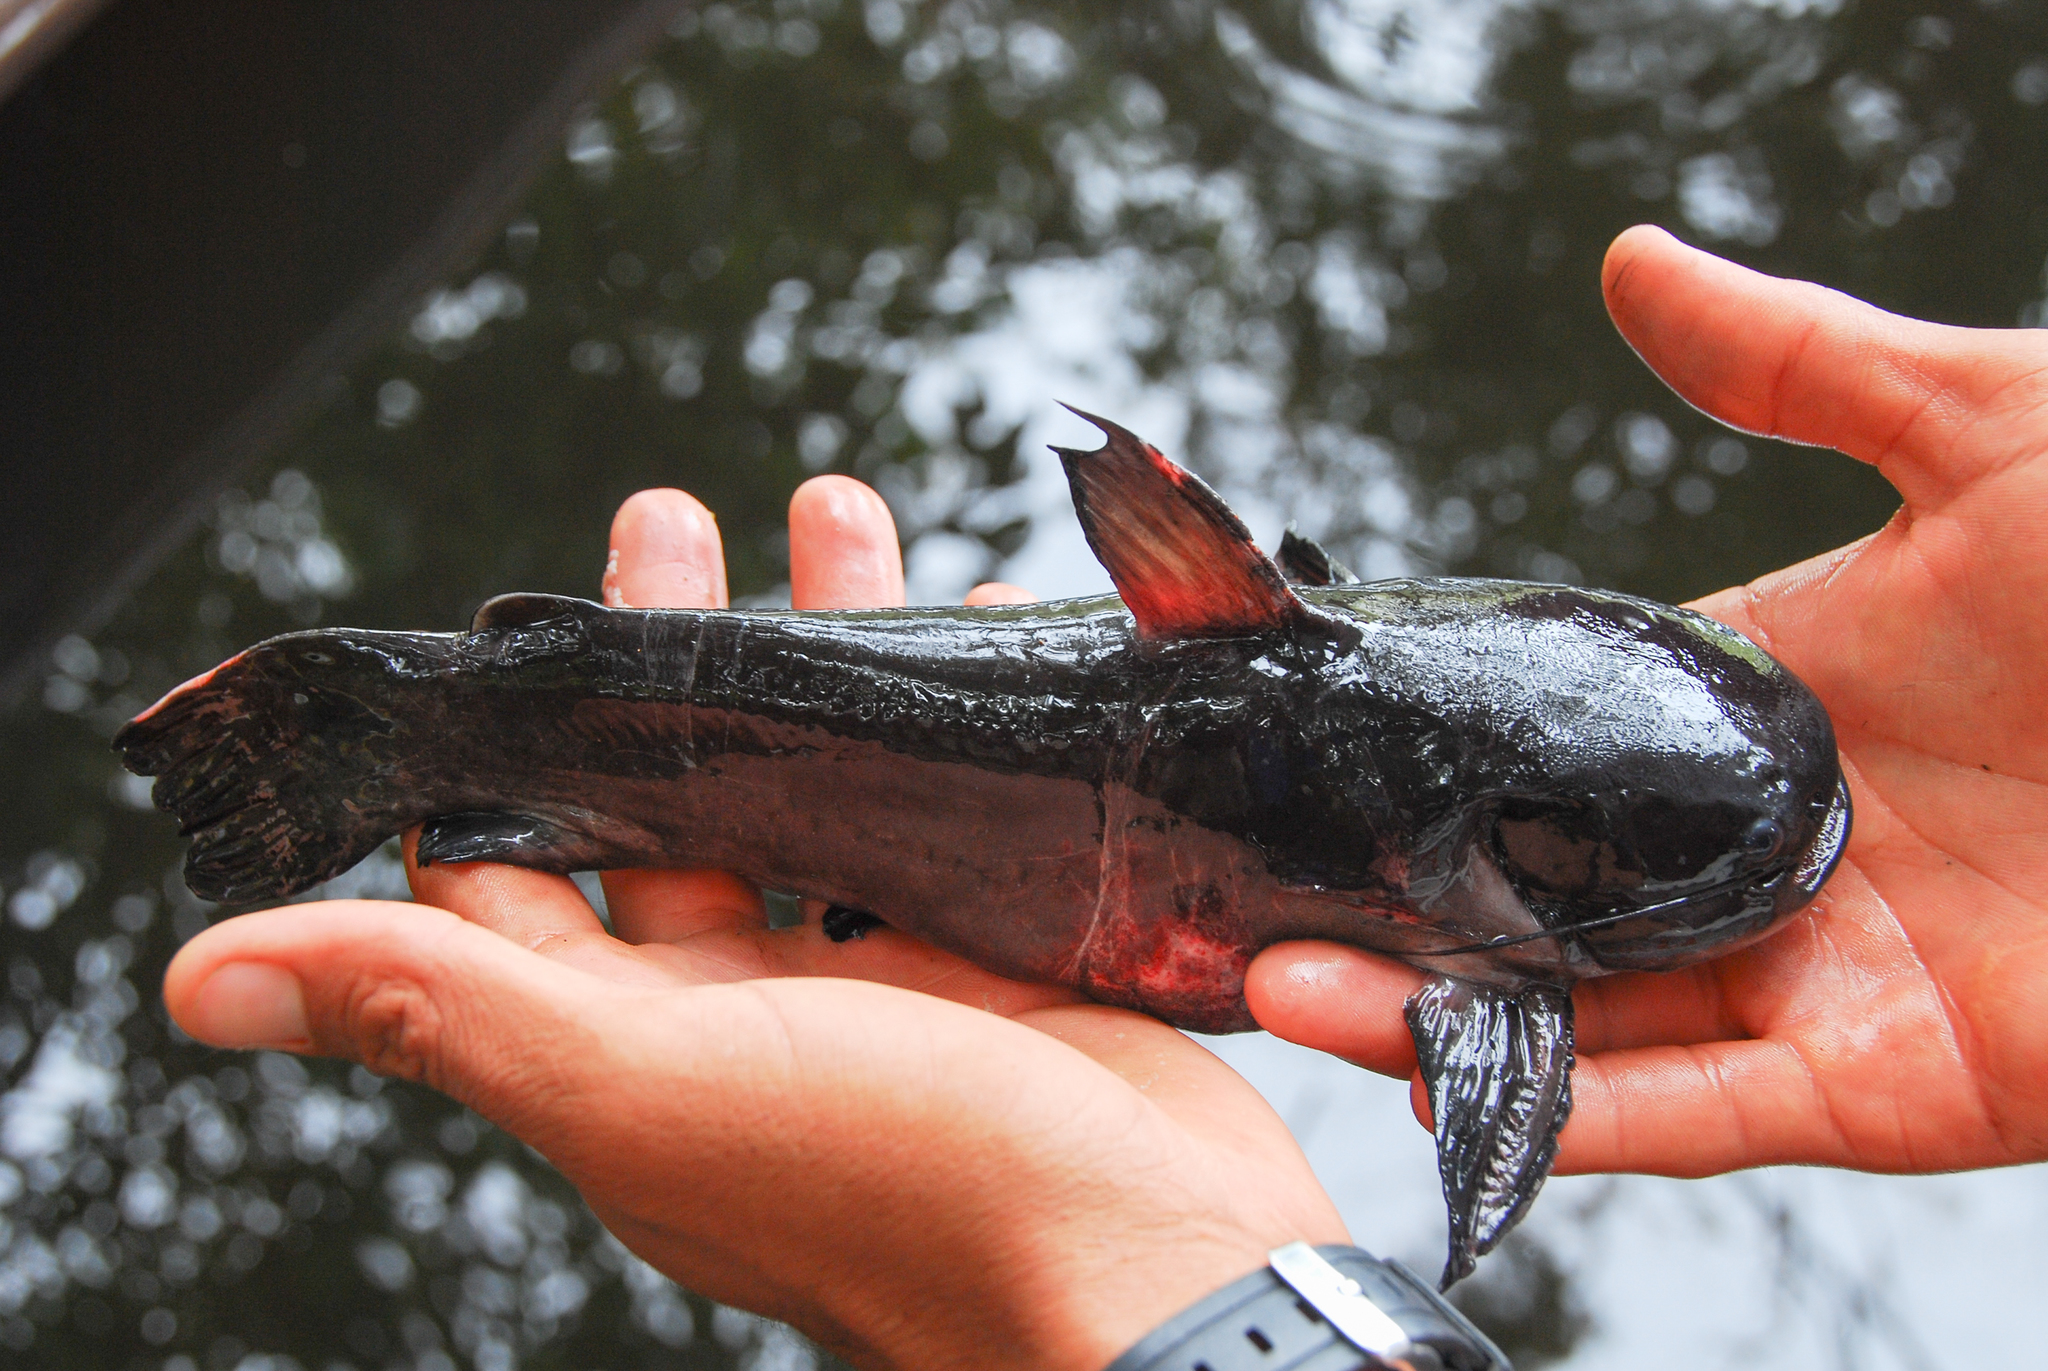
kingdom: Animalia
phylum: Chordata
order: Siluriformes
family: Auchenipteridae
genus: Trachycorystes
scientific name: Trachycorystes trachycorystes
